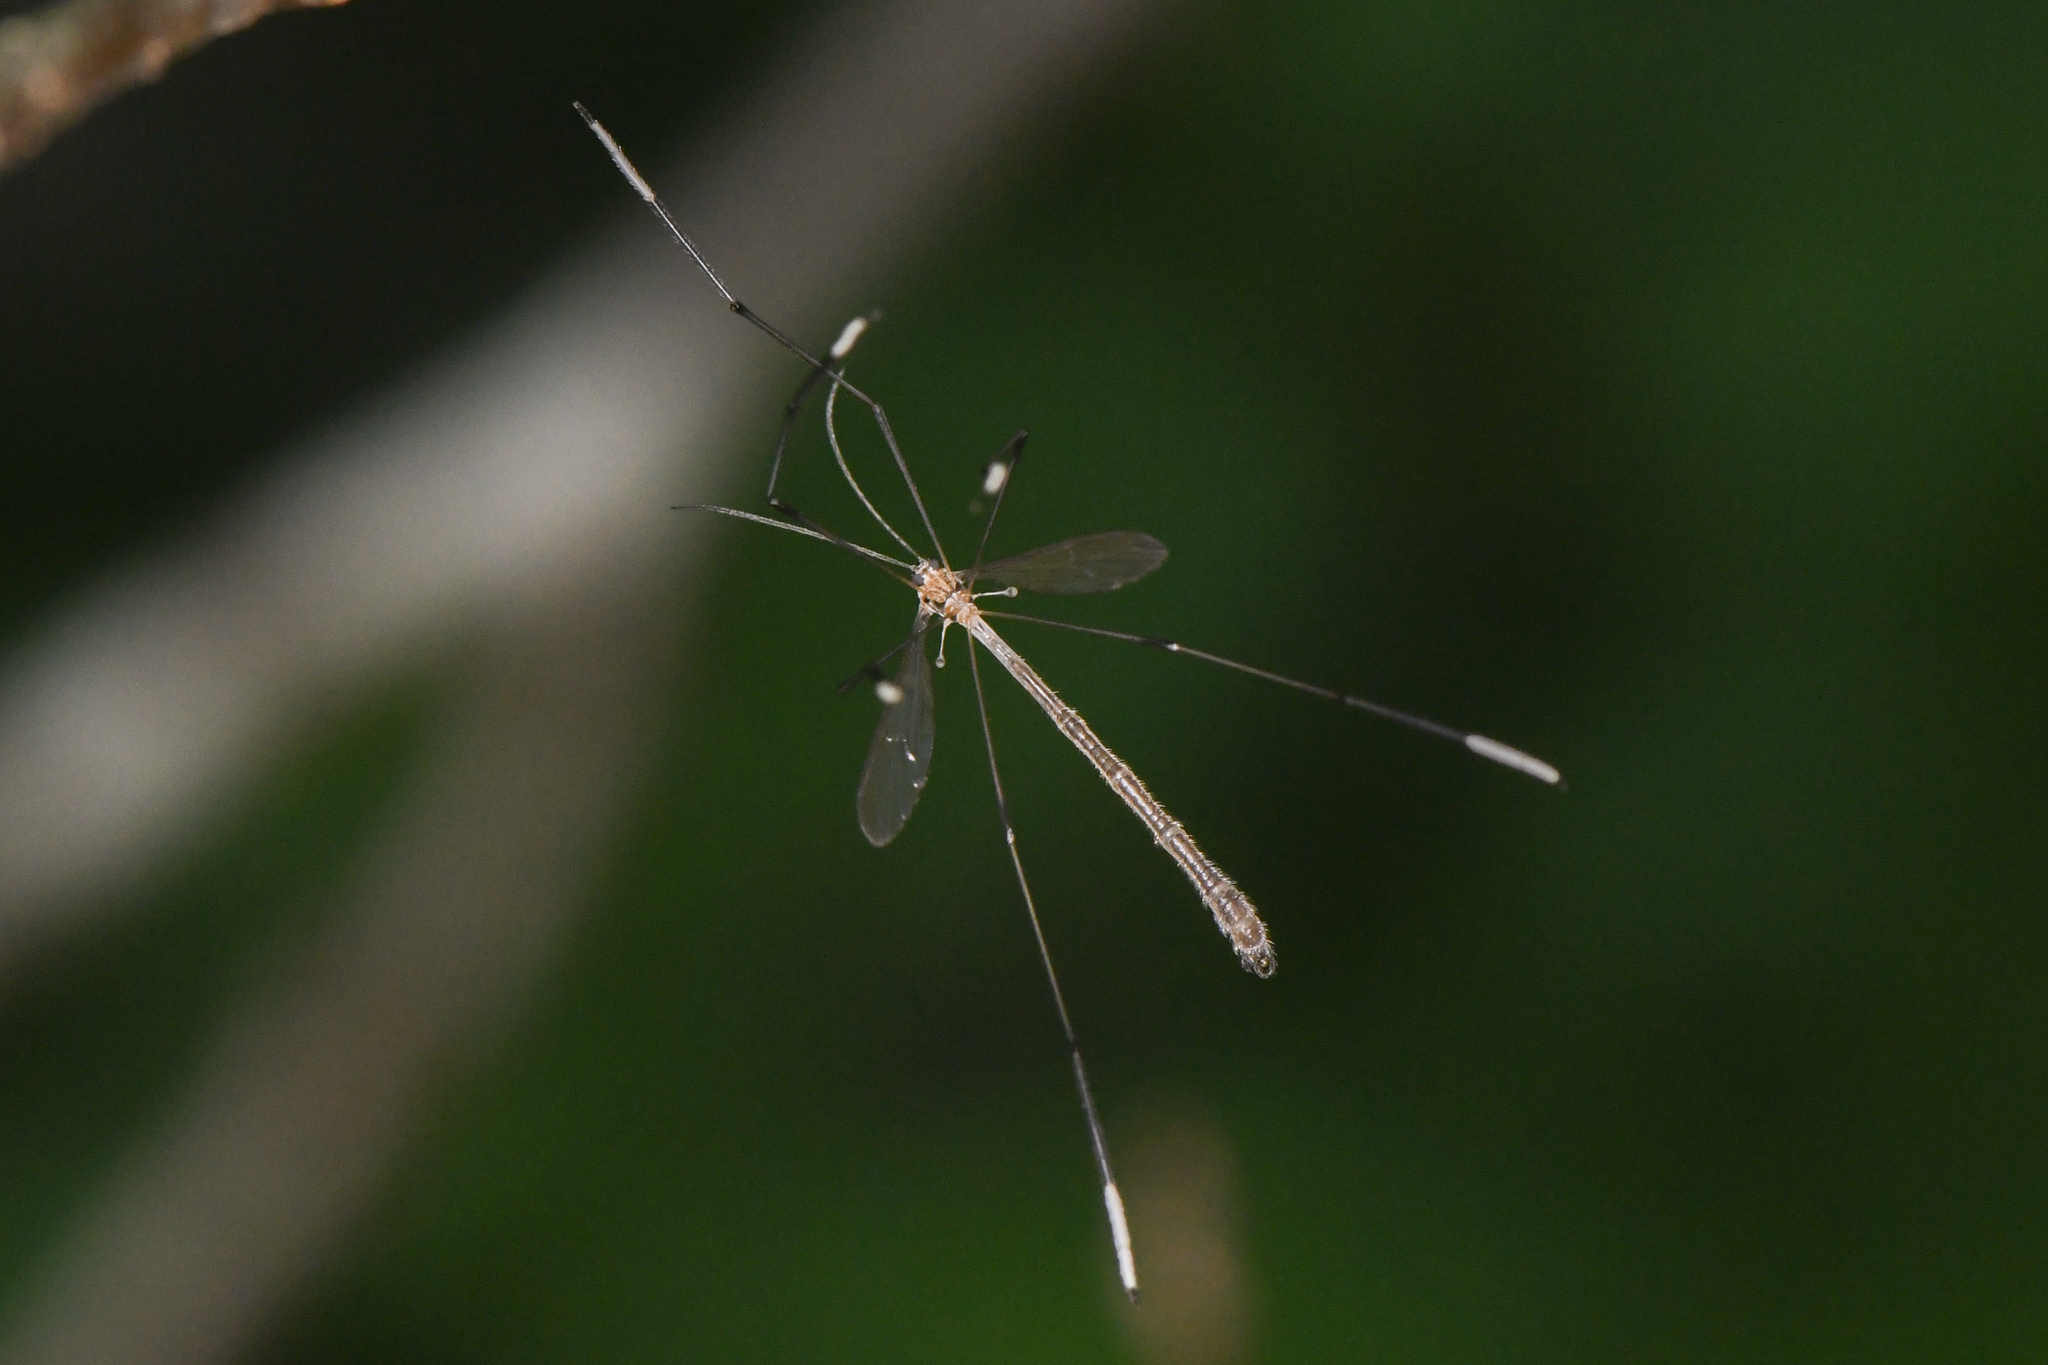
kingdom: Animalia
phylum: Arthropoda
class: Insecta
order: Diptera
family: Ptychopteridae
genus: Bittacomorpha
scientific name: Bittacomorpha occidentalis
